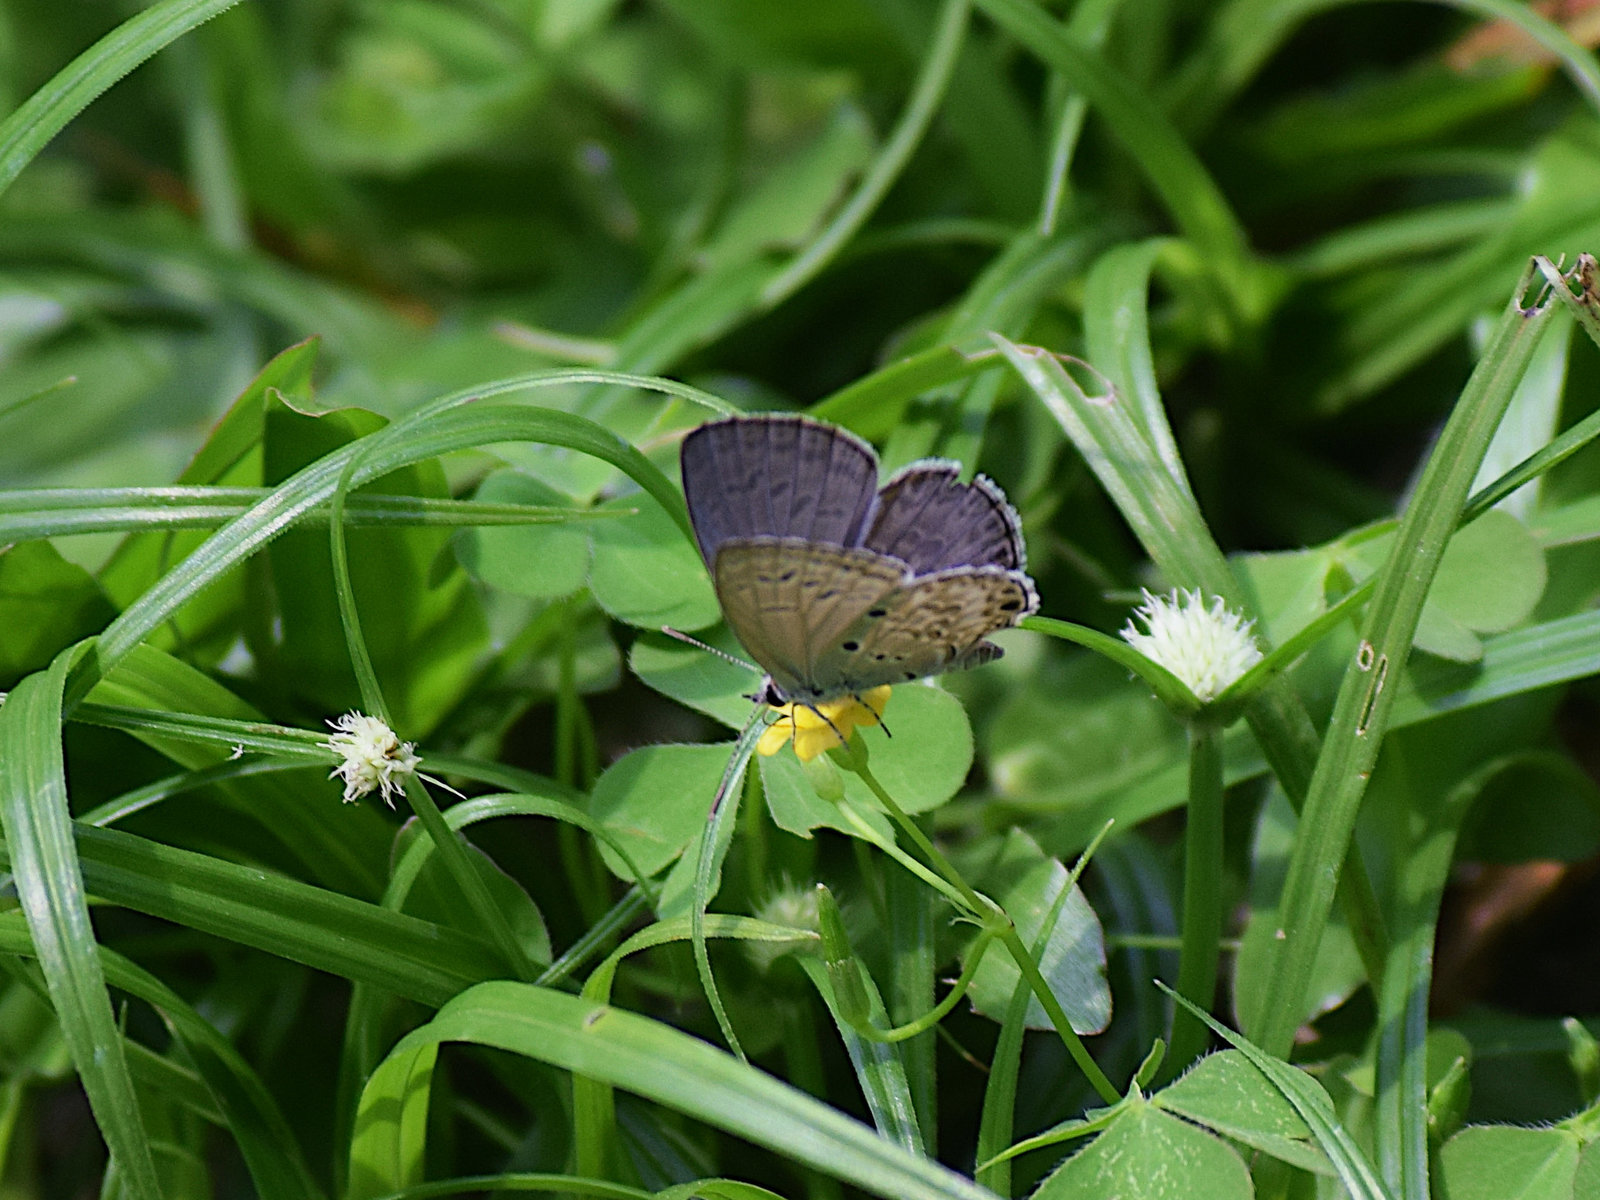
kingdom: Animalia
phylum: Arthropoda
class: Insecta
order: Lepidoptera
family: Lycaenidae
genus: Chilades
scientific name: Chilades laius
